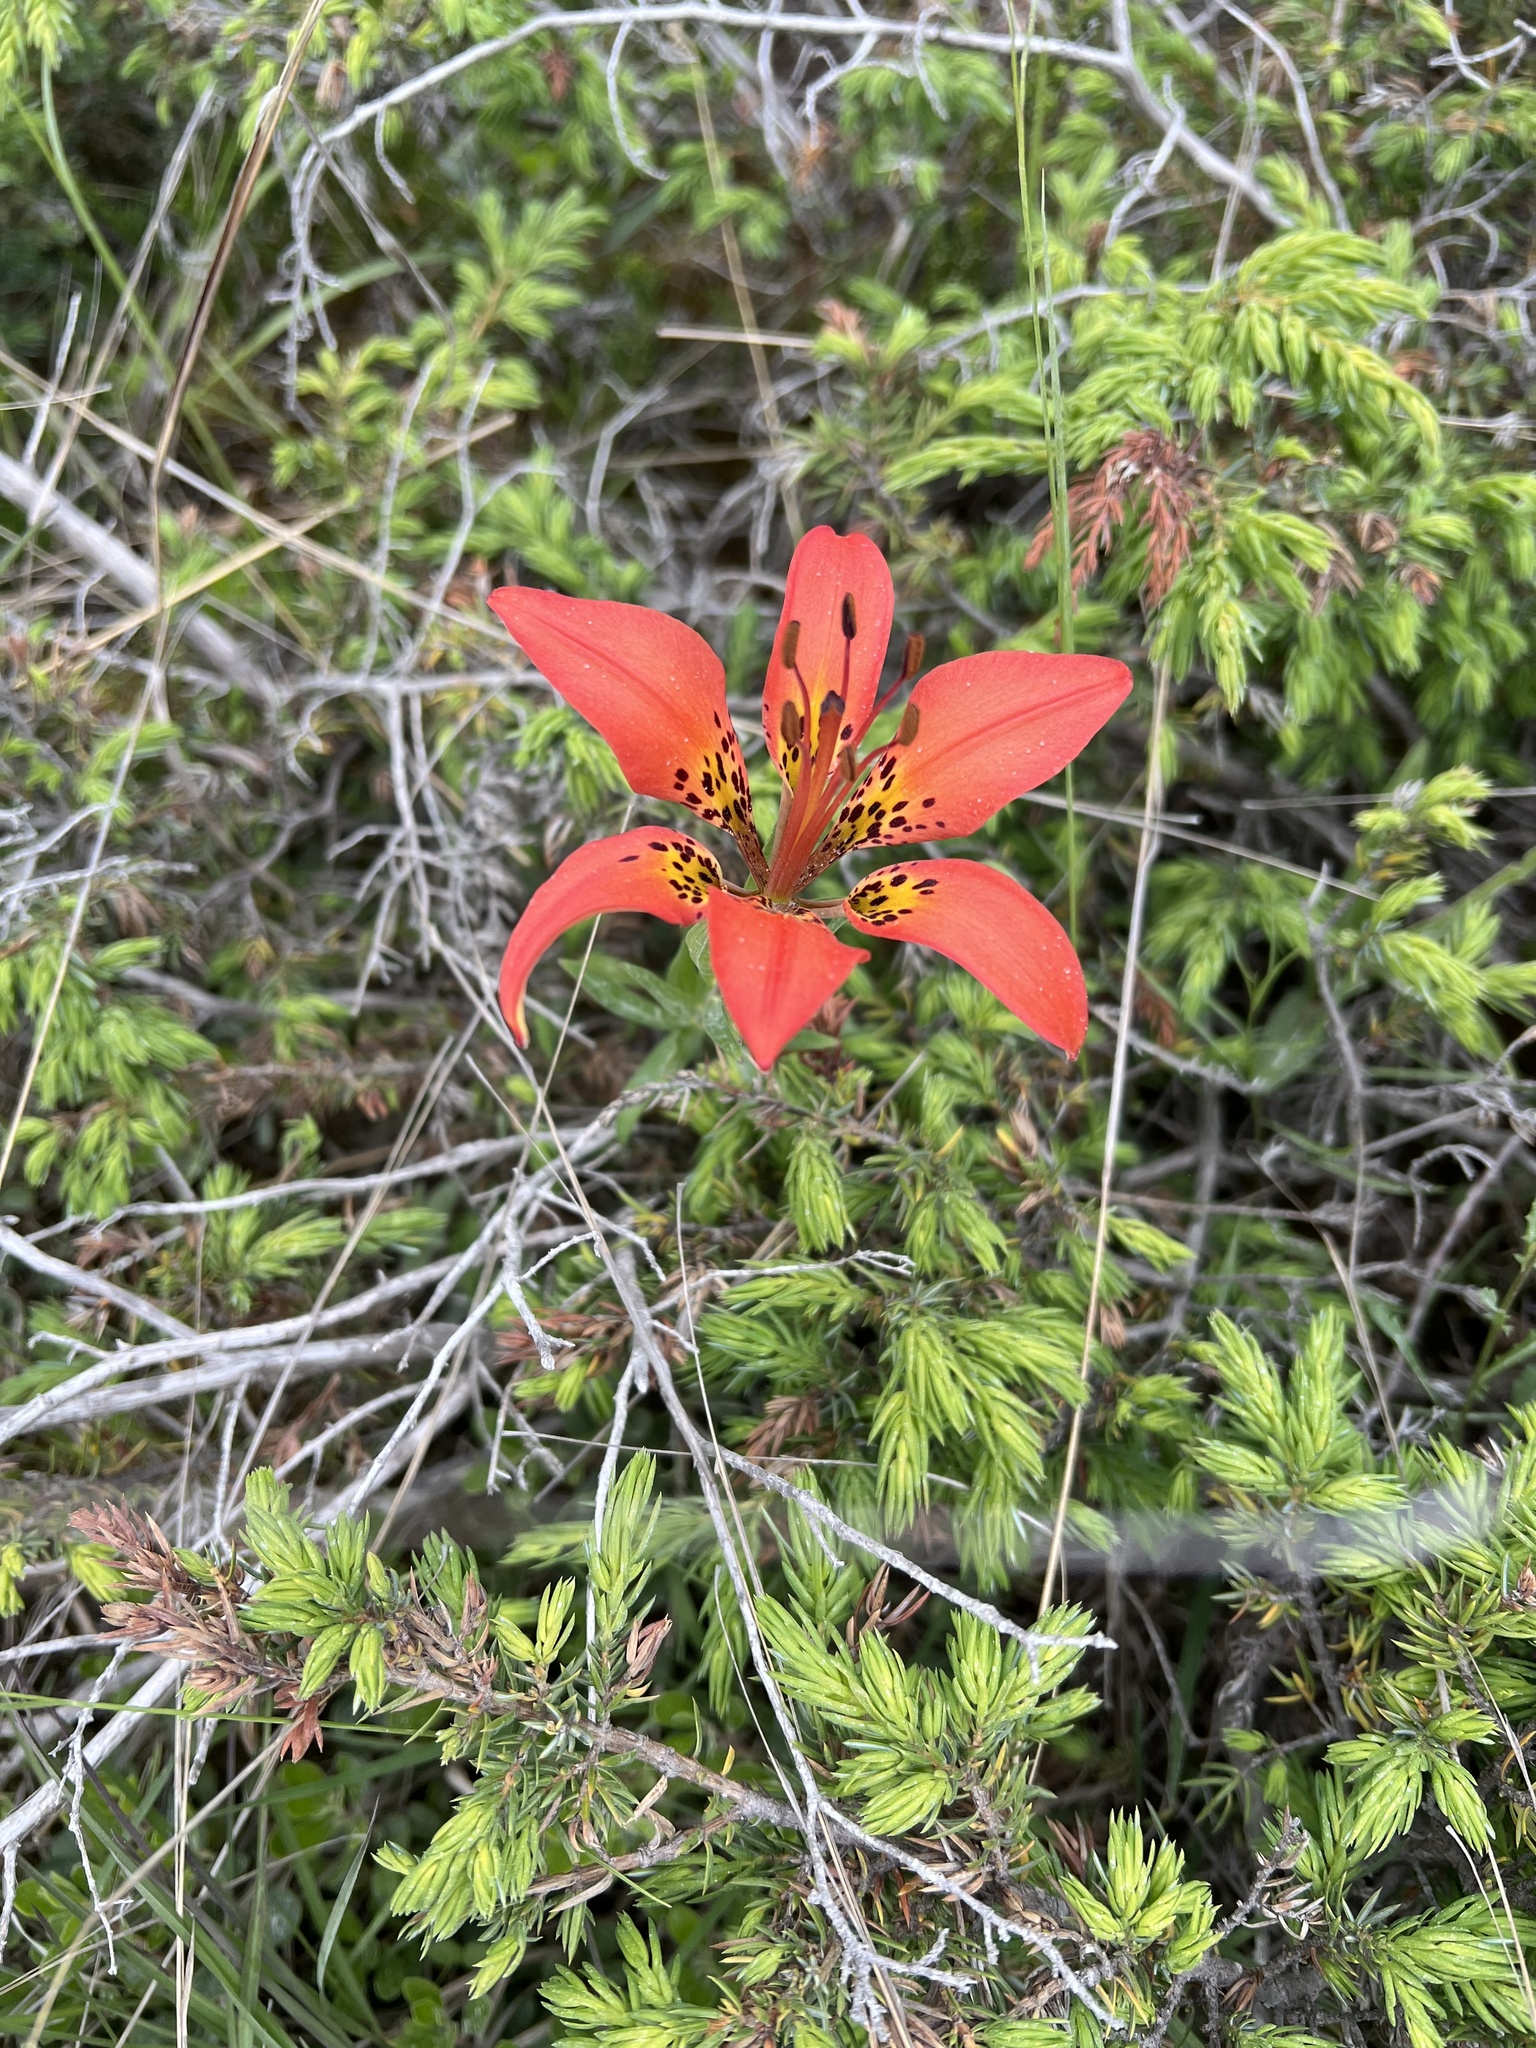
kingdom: Plantae
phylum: Tracheophyta
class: Liliopsida
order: Liliales
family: Liliaceae
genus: Lilium
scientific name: Lilium philadelphicum
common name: Red lily
